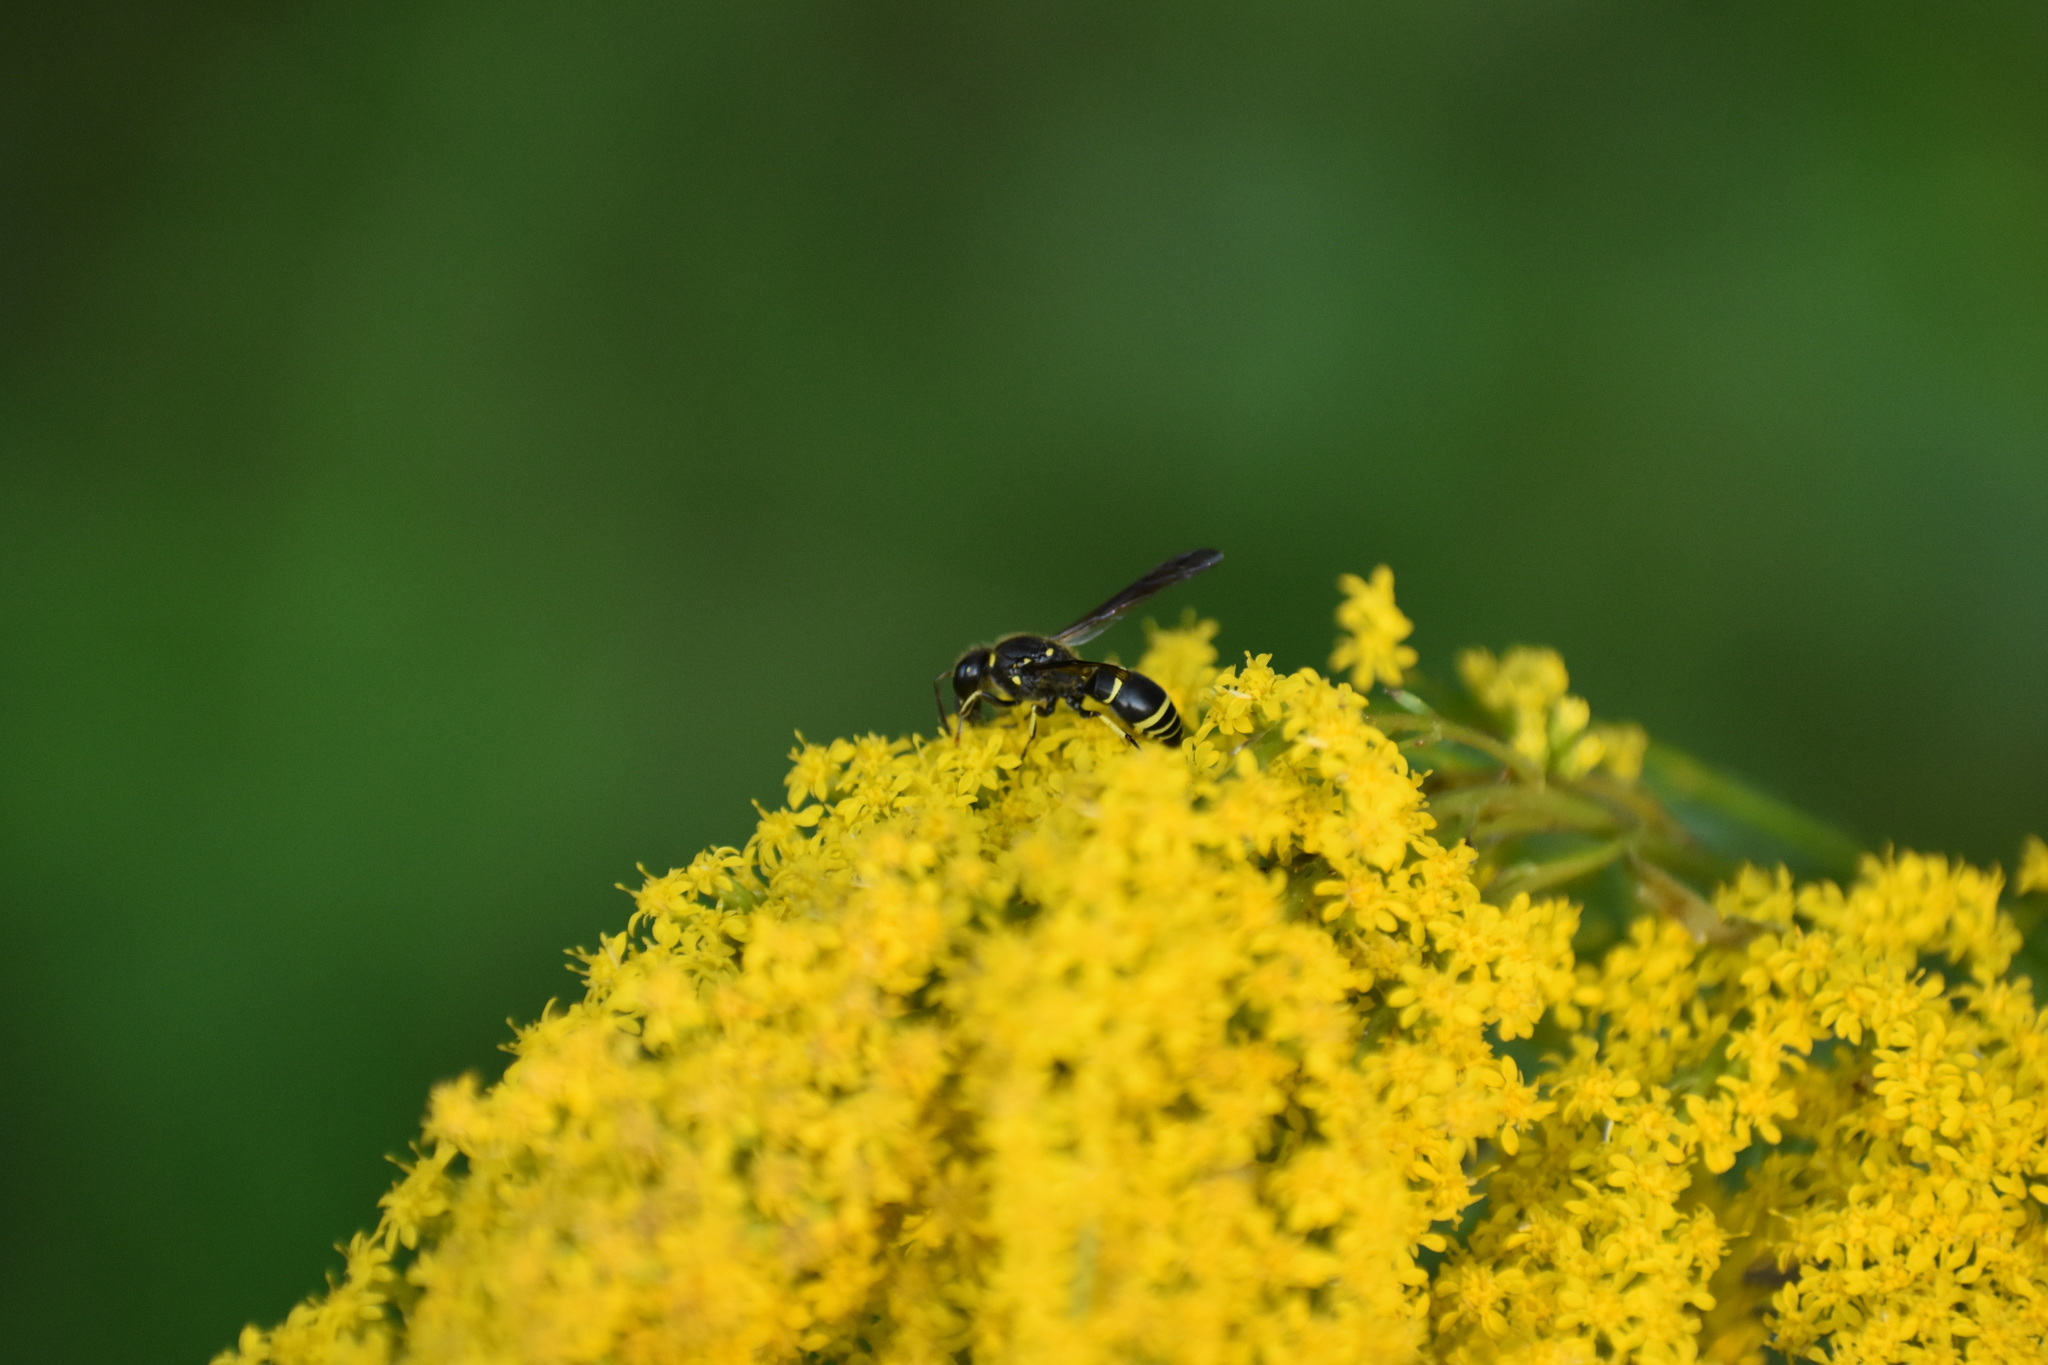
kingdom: Animalia
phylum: Arthropoda
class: Insecta
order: Hymenoptera
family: Vespidae
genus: Ancistrocerus
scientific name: Ancistrocerus
